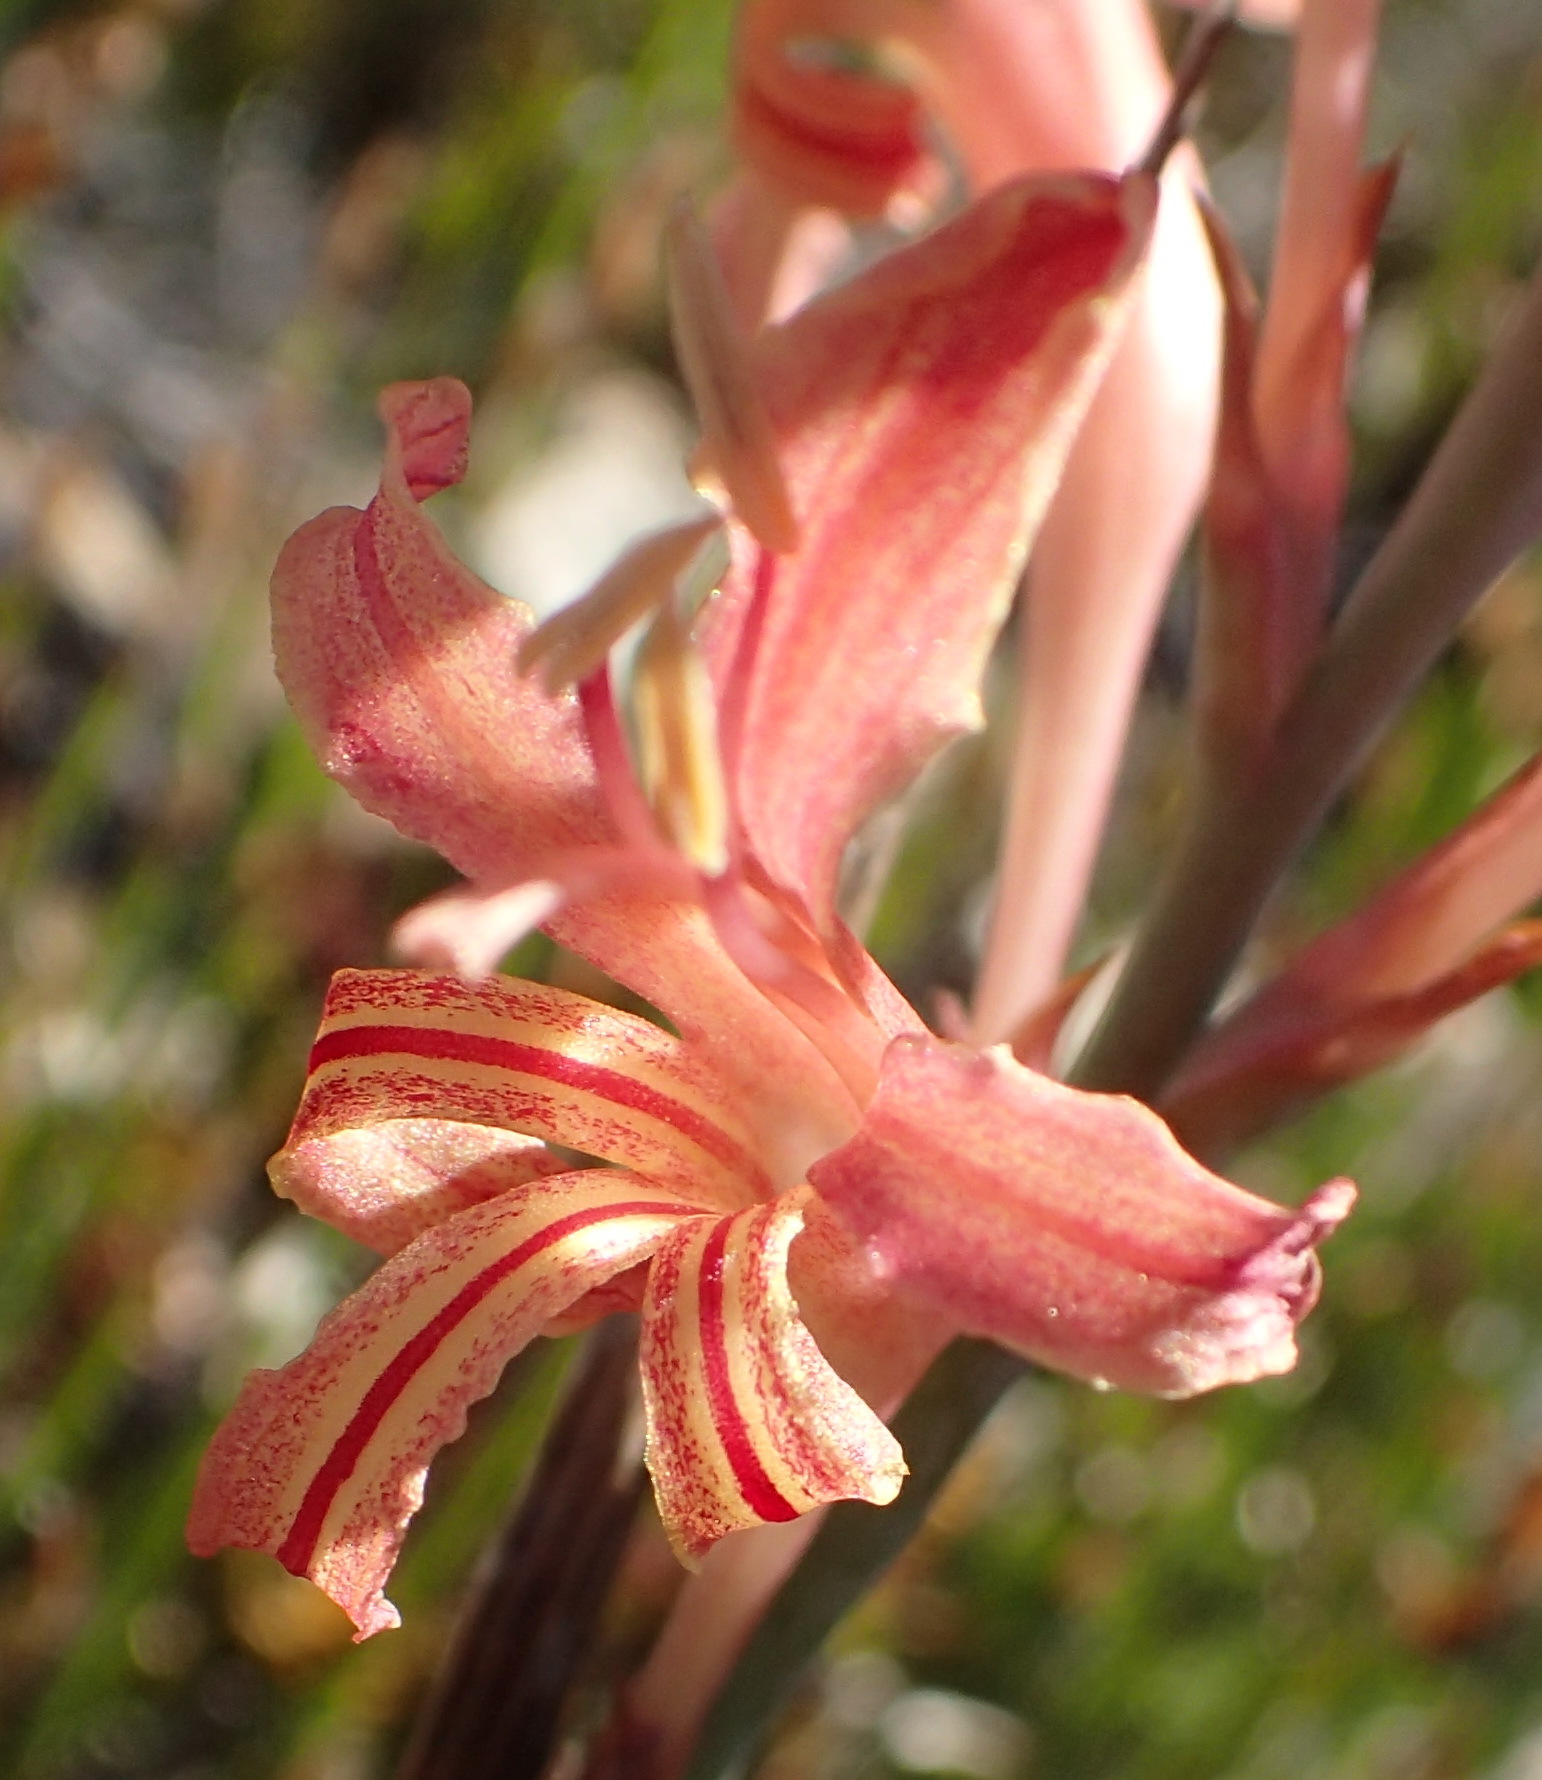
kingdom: Plantae
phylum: Tracheophyta
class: Liliopsida
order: Asparagales
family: Iridaceae
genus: Tritoniopsis
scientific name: Tritoniopsis antholyza
